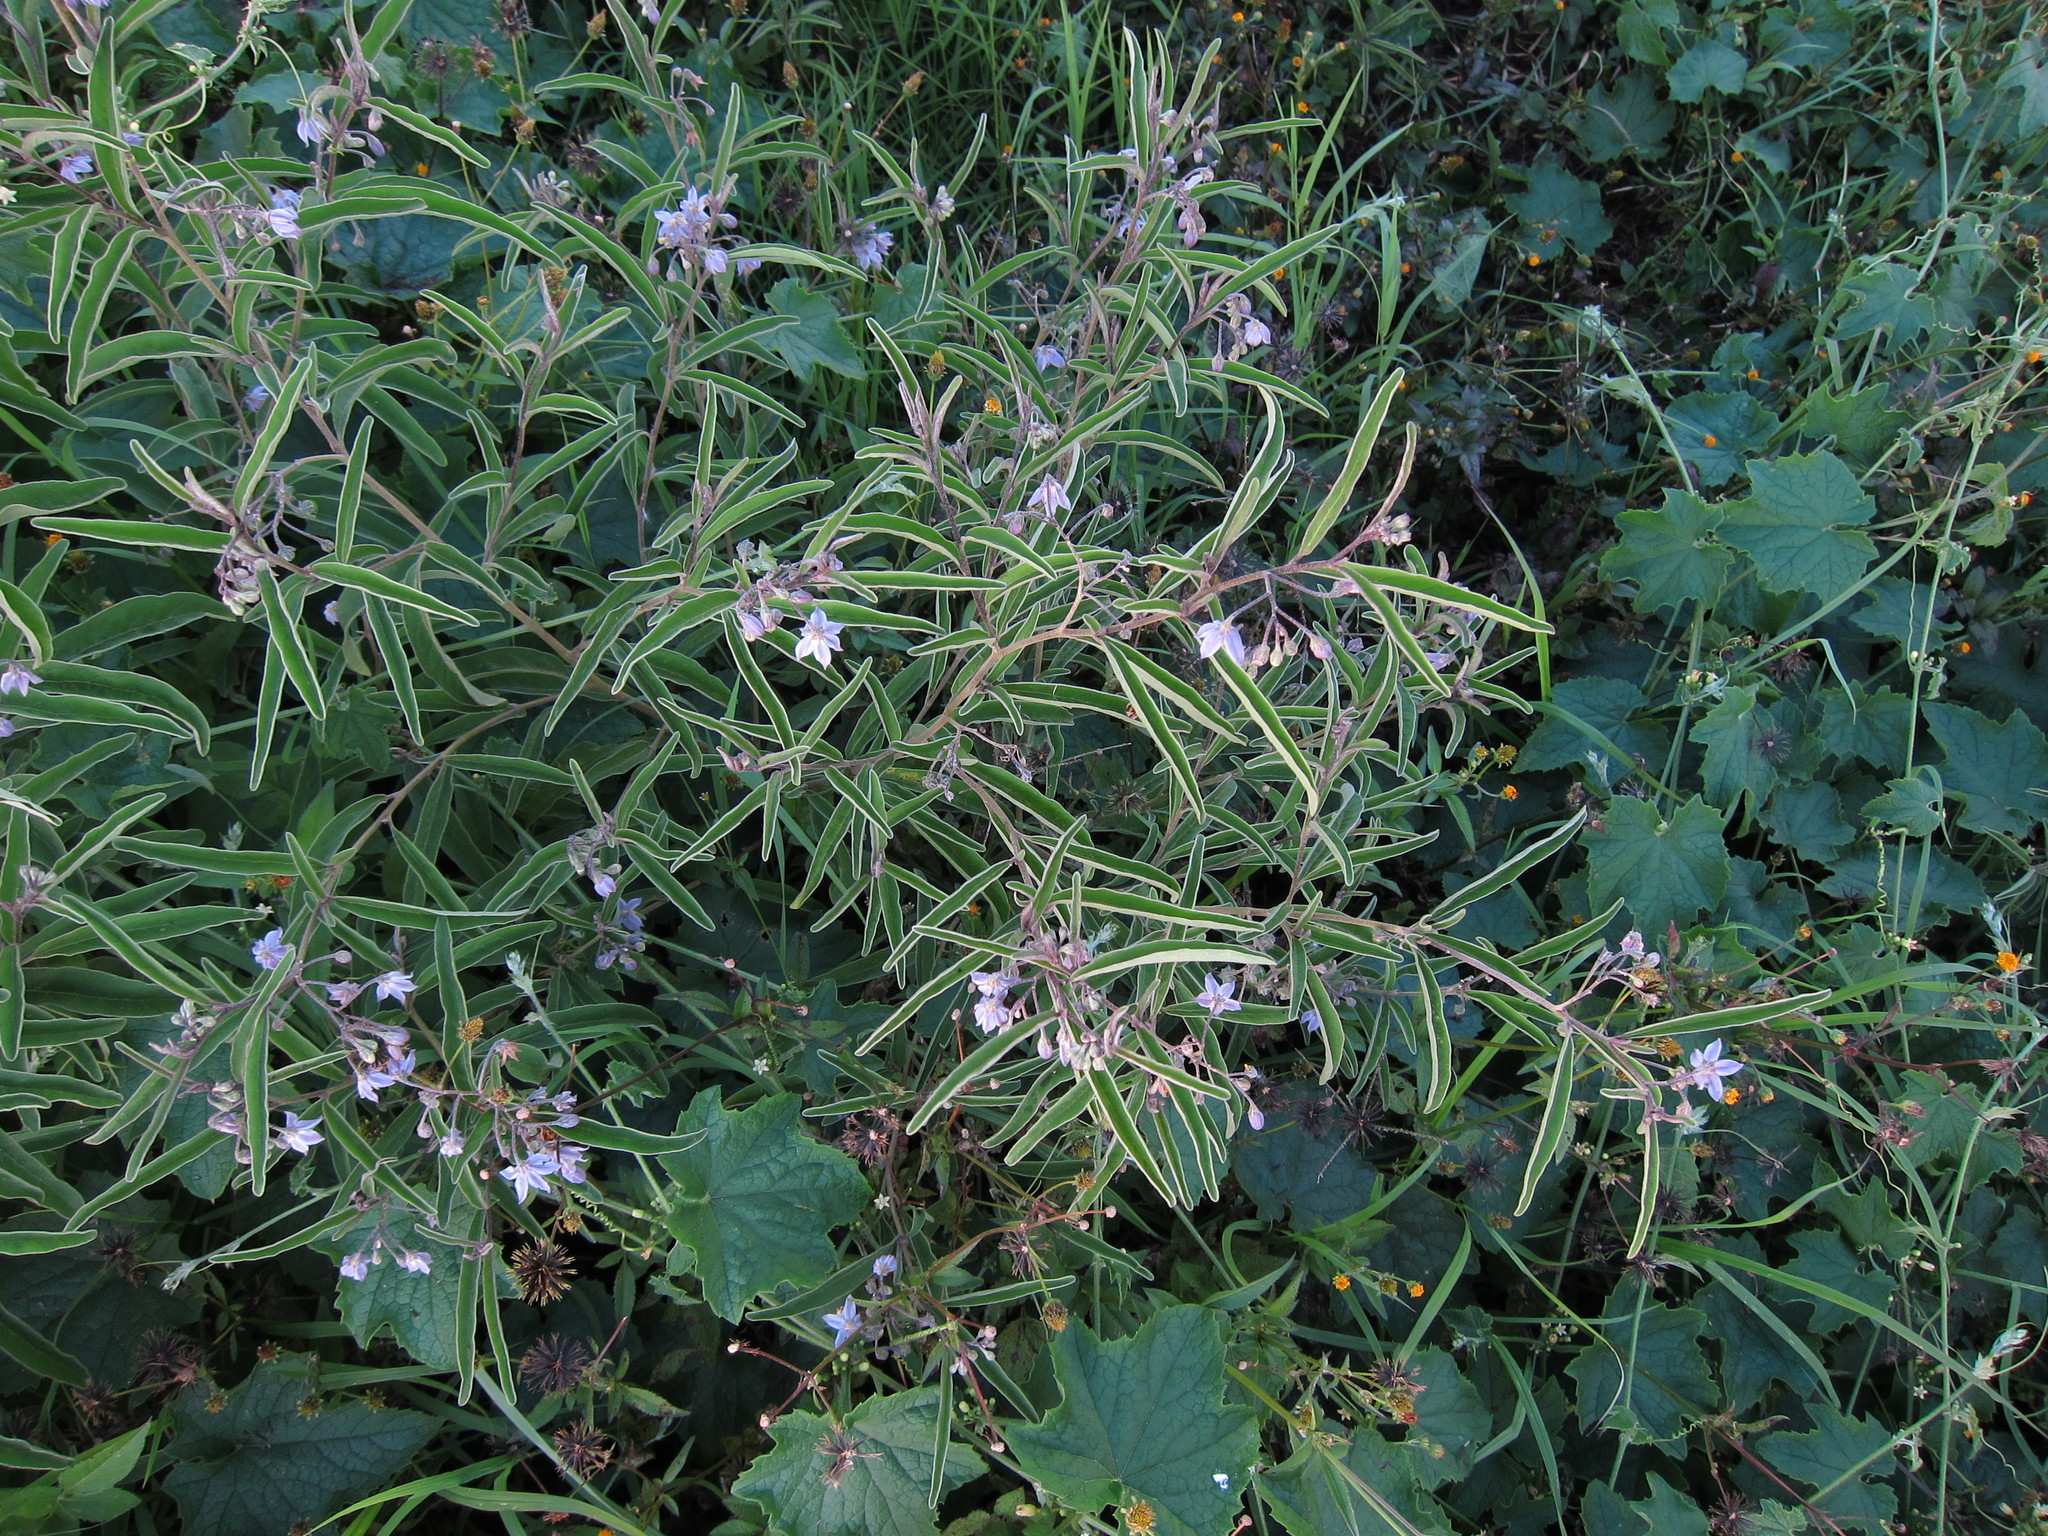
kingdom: Plantae
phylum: Tracheophyta
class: Magnoliopsida
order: Solanales
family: Solanaceae
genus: Solanum
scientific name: Solanum lanzae
